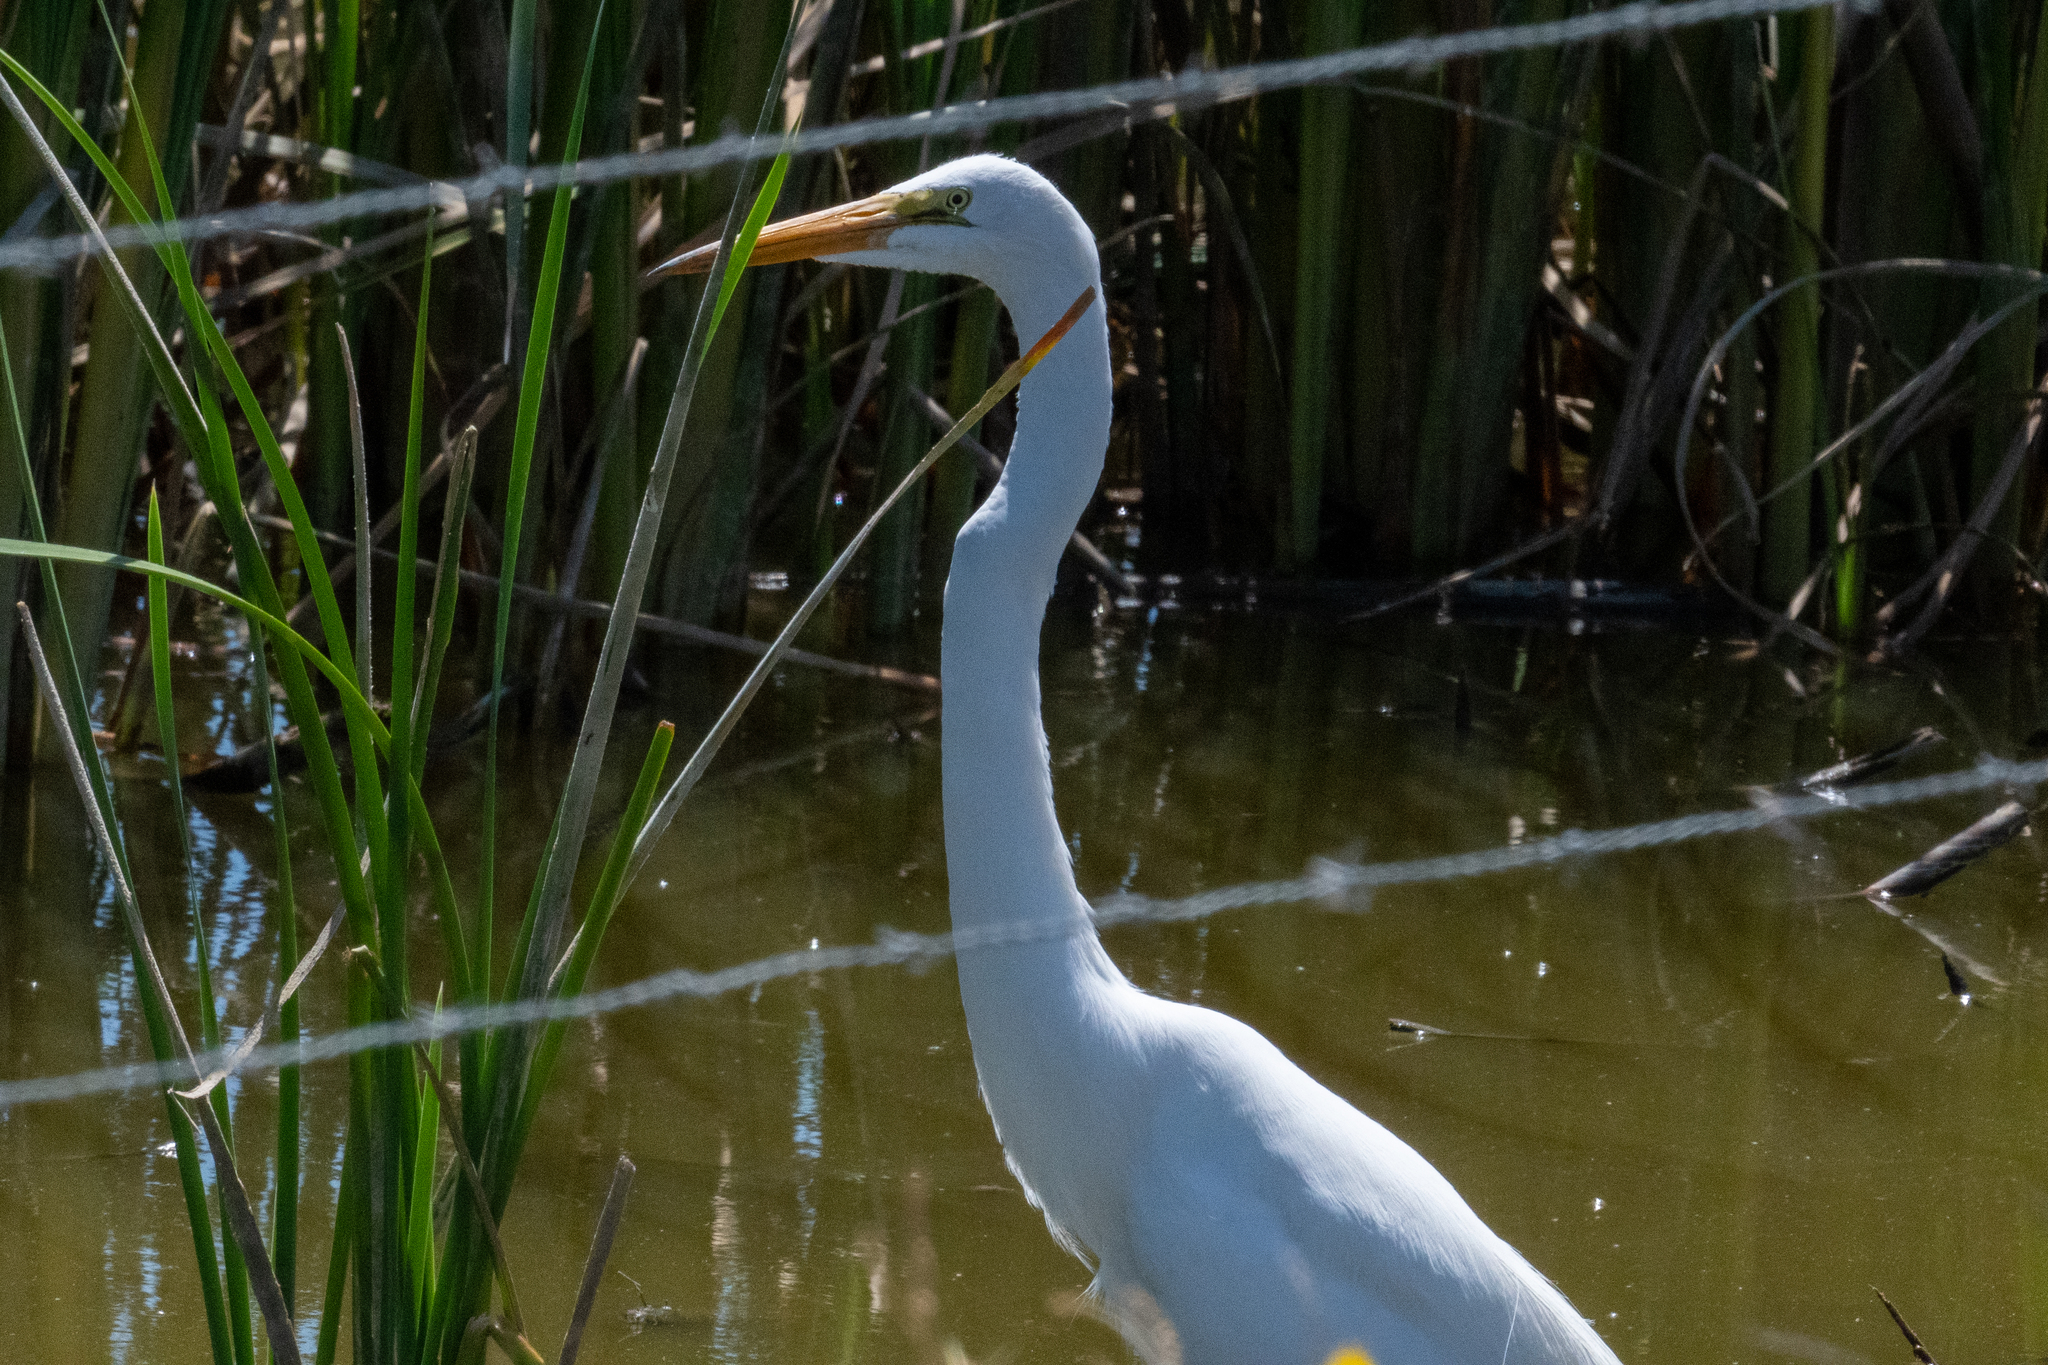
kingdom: Animalia
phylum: Chordata
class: Aves
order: Pelecaniformes
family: Ardeidae
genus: Ardea
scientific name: Ardea alba
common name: Great egret
